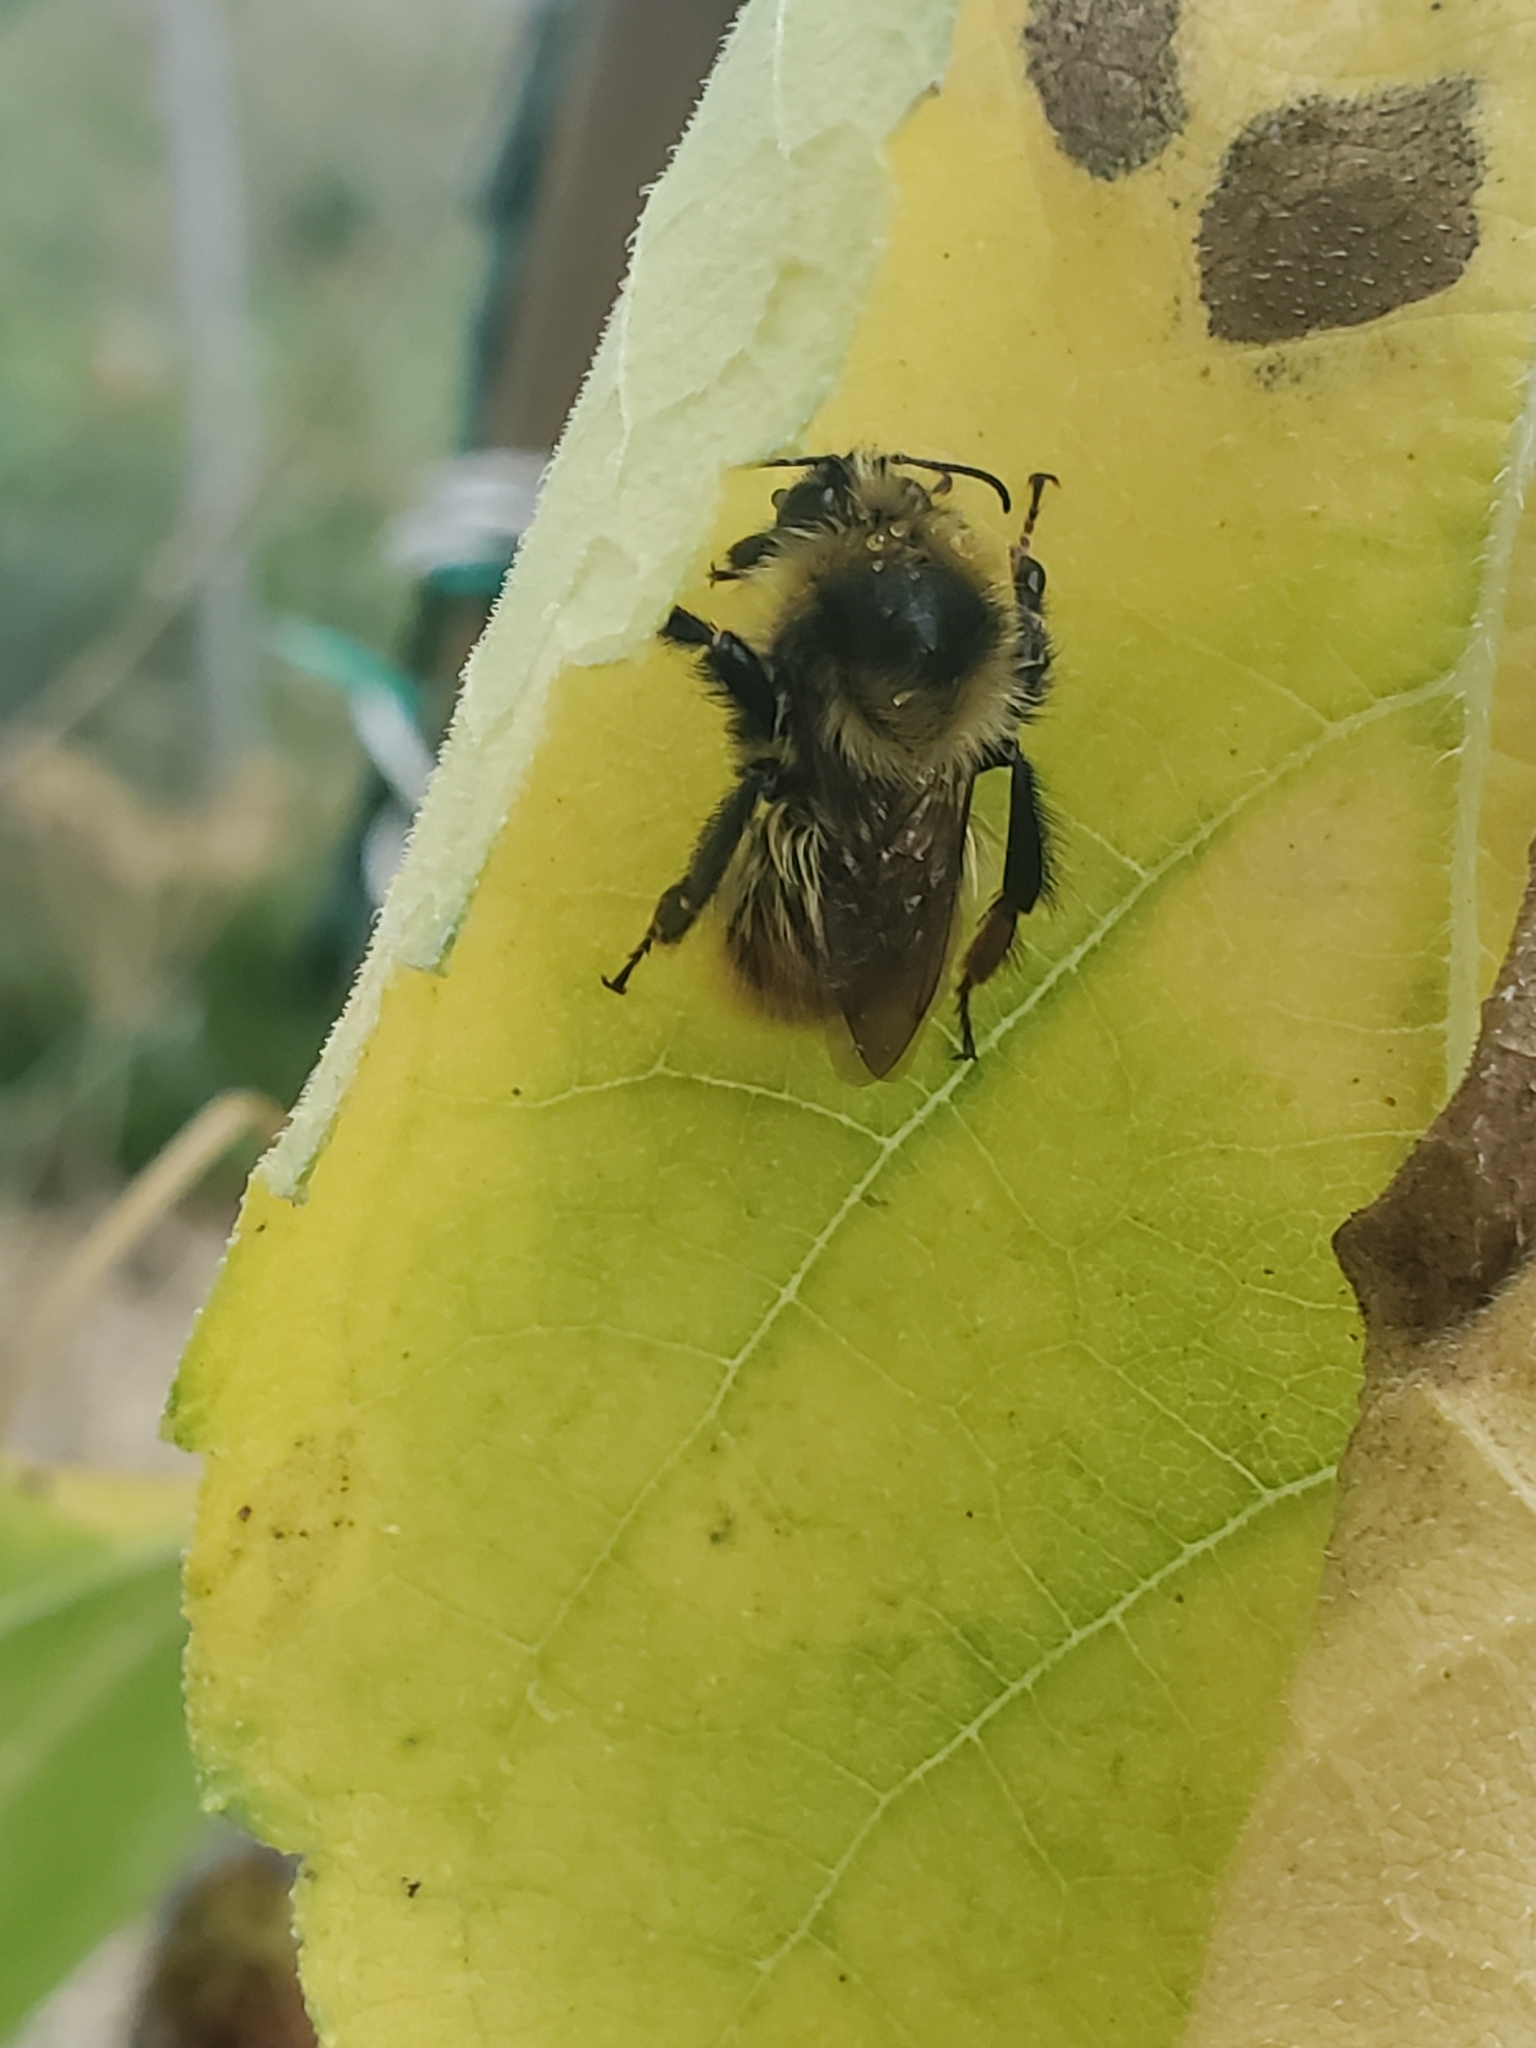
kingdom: Animalia
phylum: Arthropoda
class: Insecta
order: Hymenoptera
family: Apidae
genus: Bombus
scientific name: Bombus rufocinctus
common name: Red-belted bumble bee
